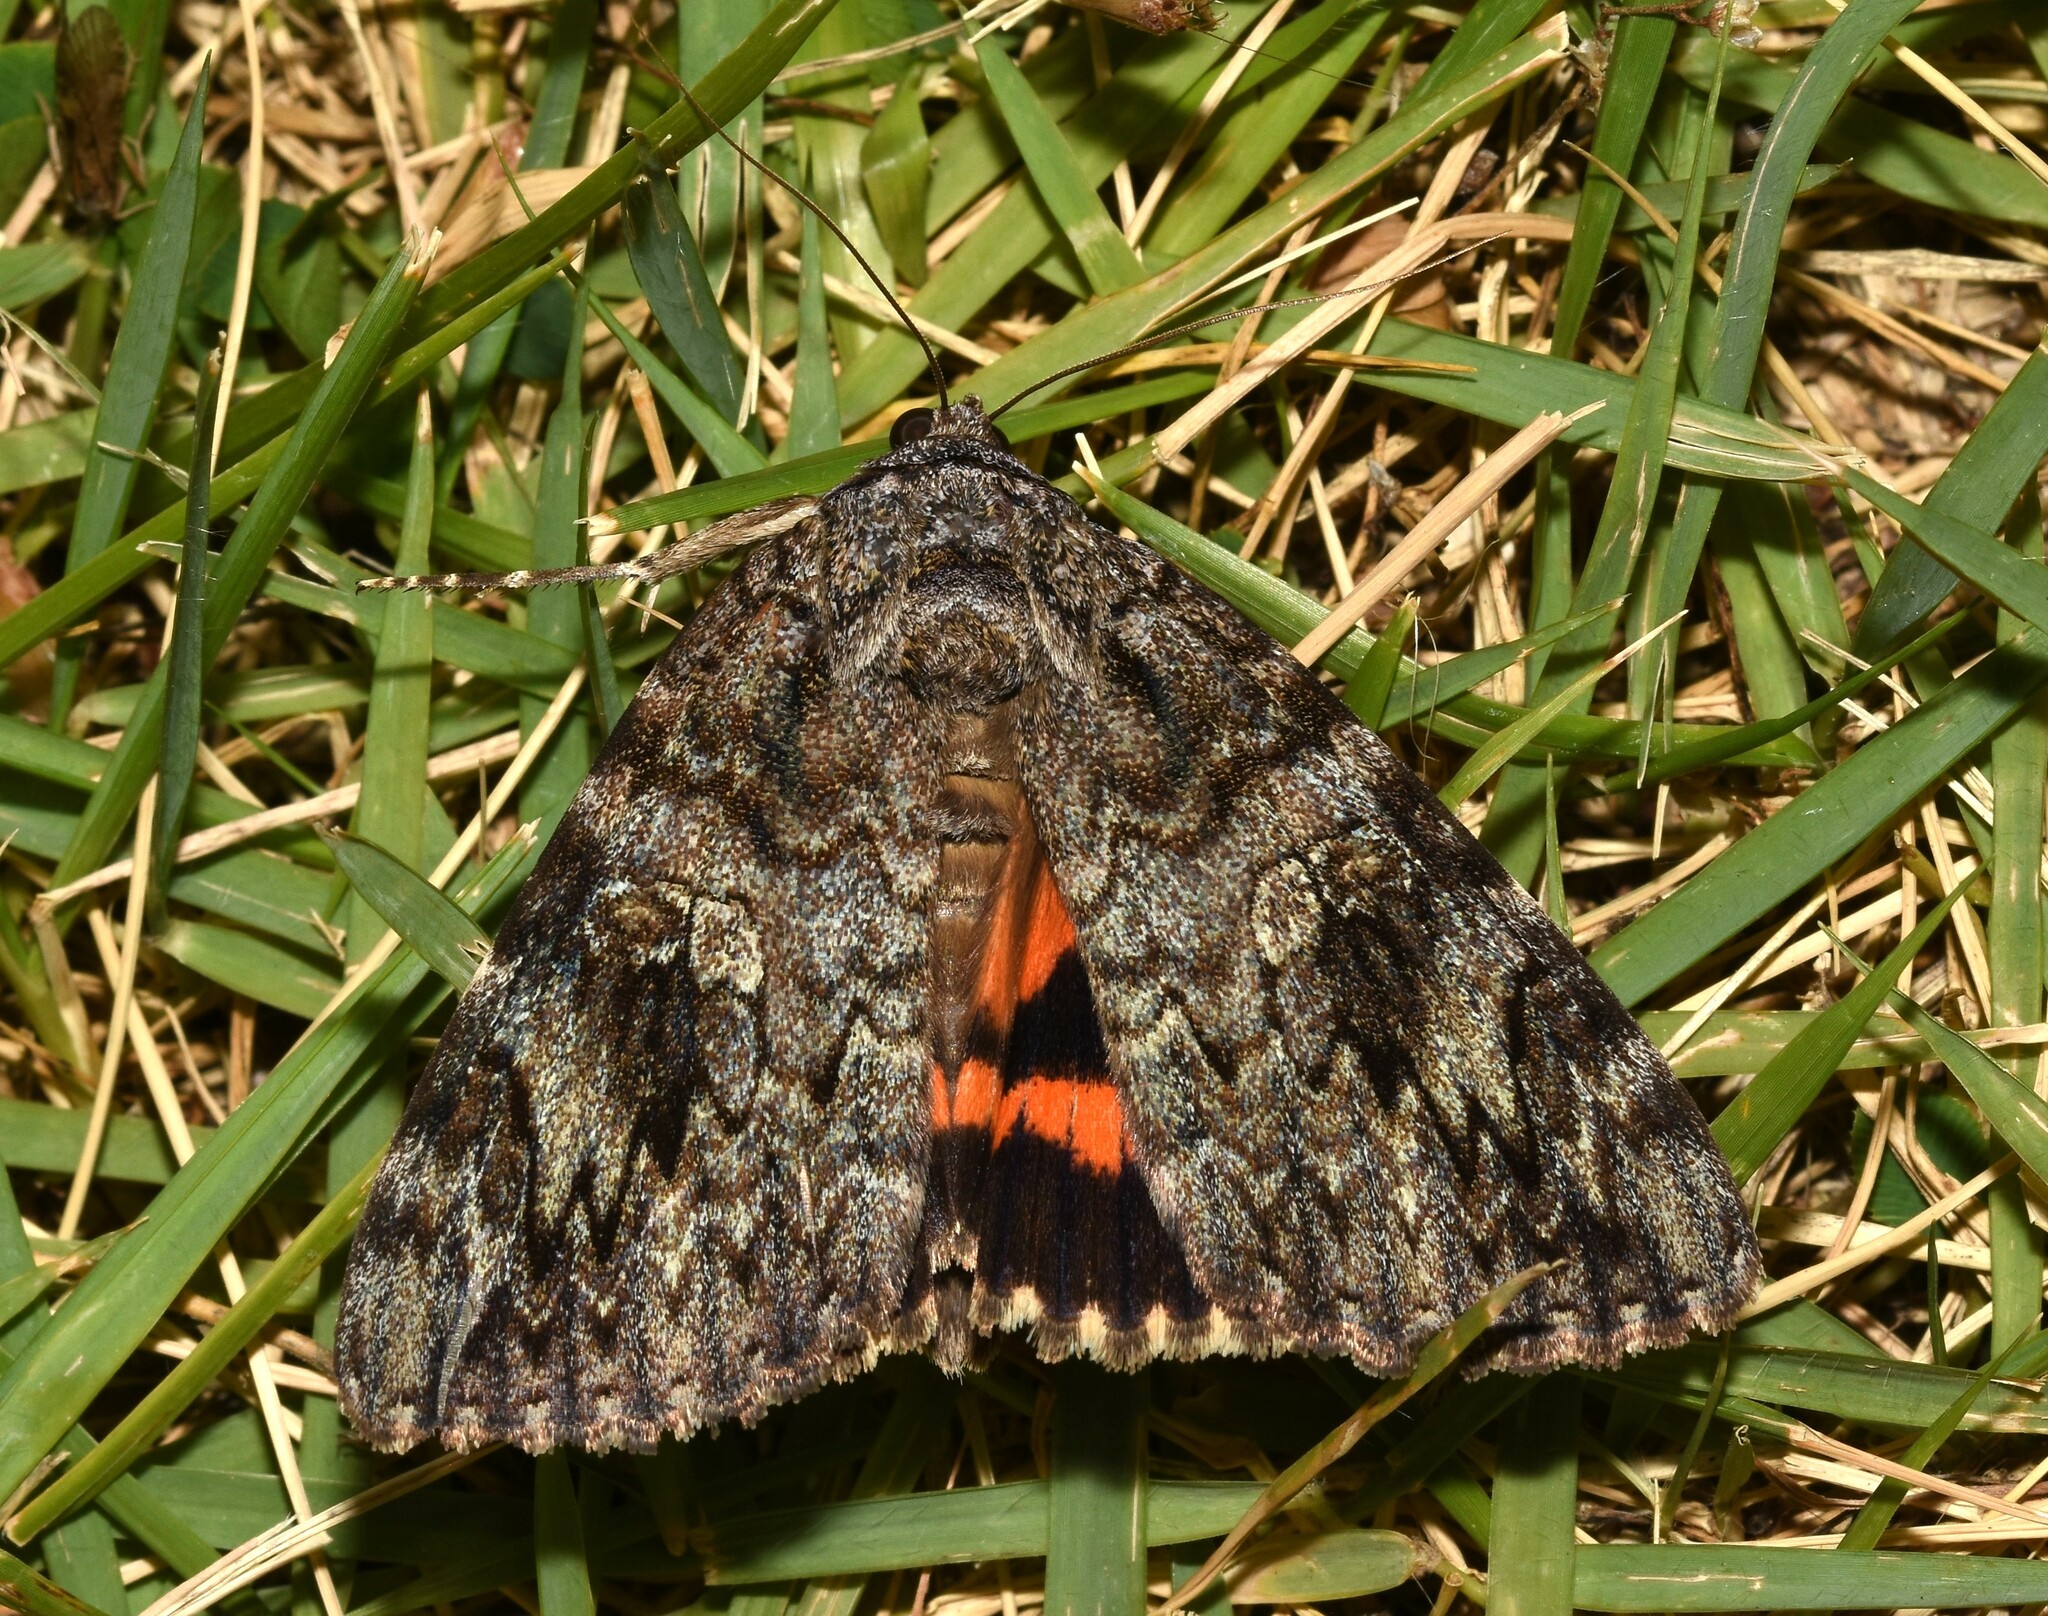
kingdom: Animalia
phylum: Arthropoda
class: Insecta
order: Lepidoptera
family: Erebidae
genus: Catocala
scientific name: Catocala ilia
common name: Ilia underwing
